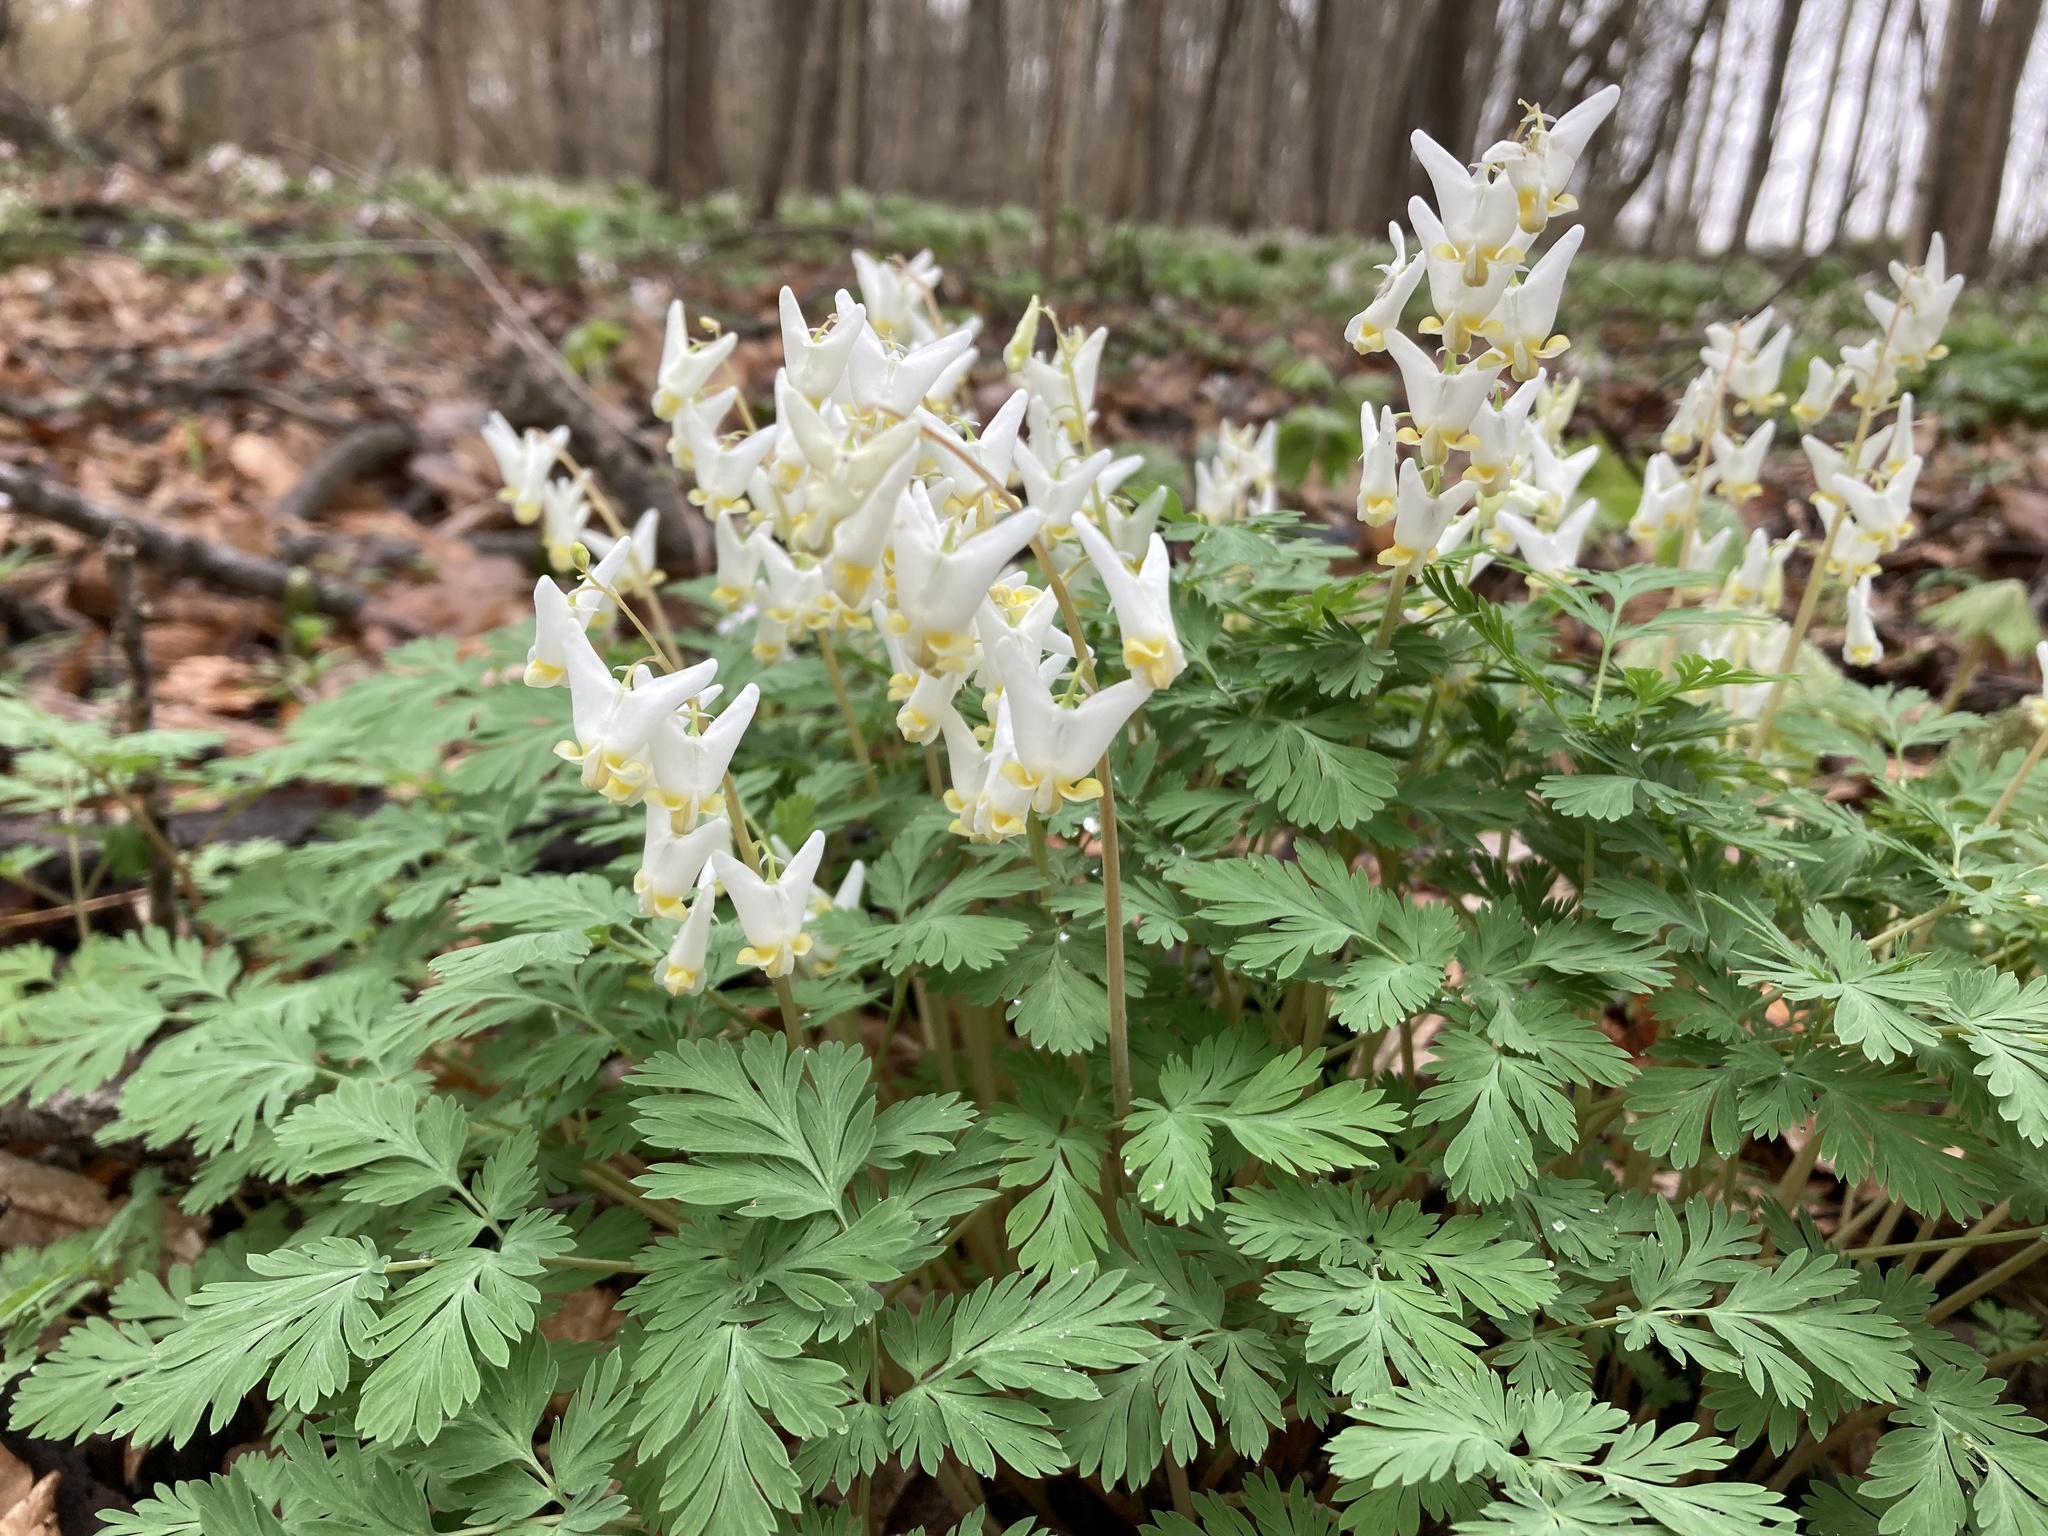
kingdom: Plantae
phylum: Tracheophyta
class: Magnoliopsida
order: Ranunculales
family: Papaveraceae
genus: Dicentra
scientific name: Dicentra cucullaria
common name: Dutchman's breeches
